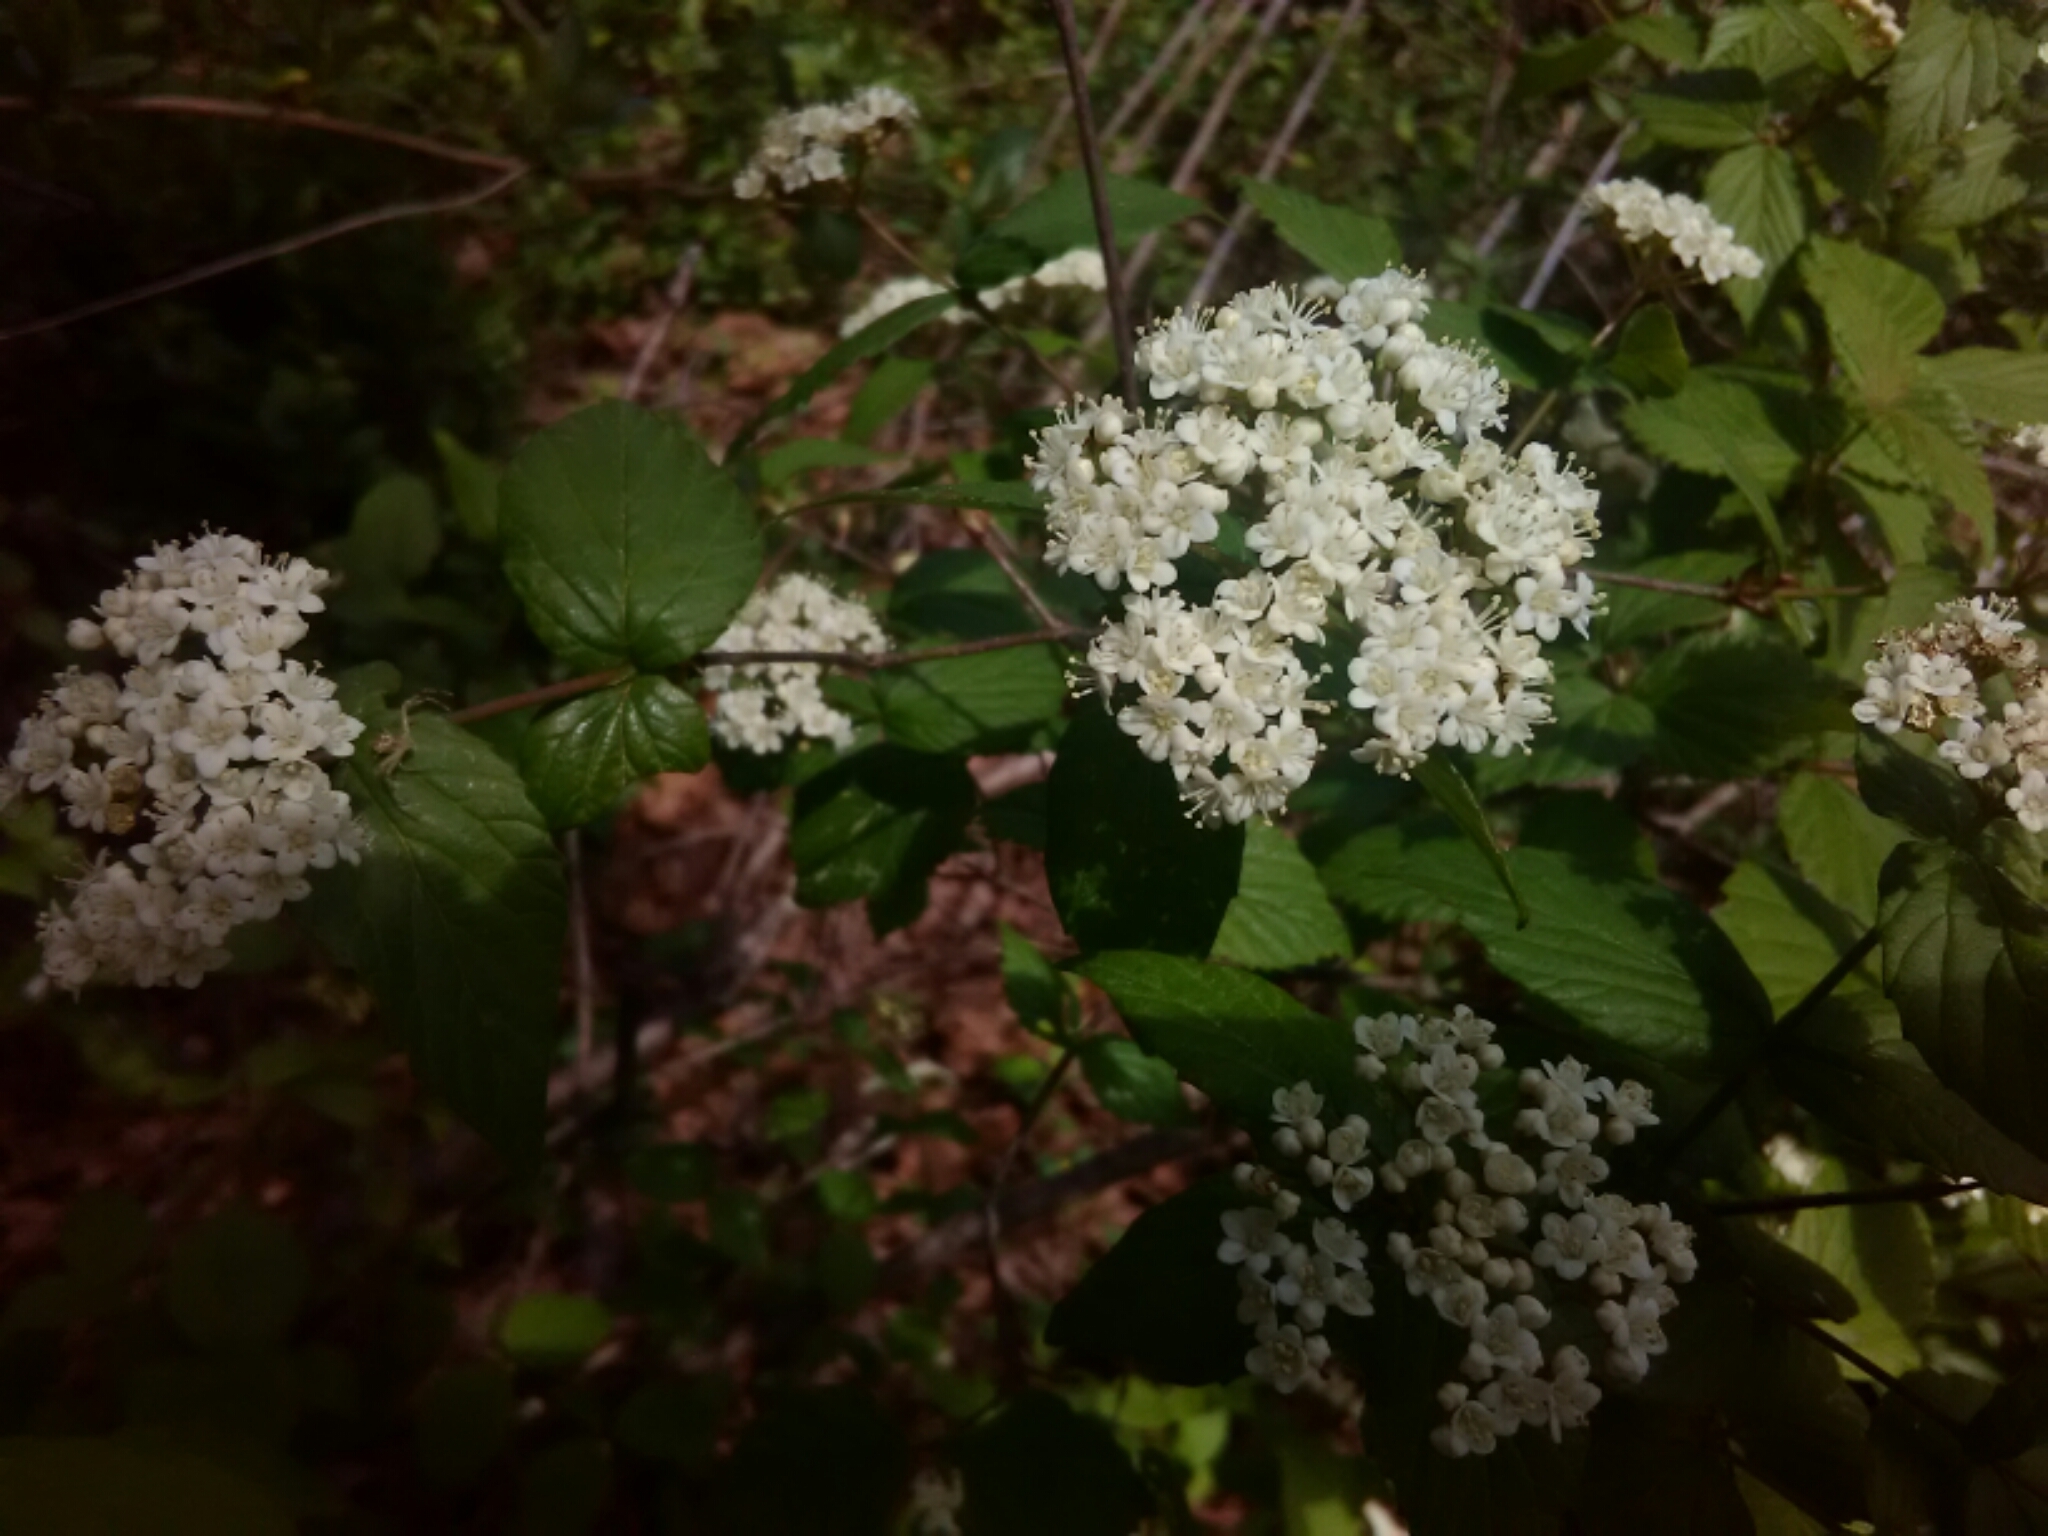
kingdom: Plantae
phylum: Tracheophyta
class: Magnoliopsida
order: Dipsacales
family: Viburnaceae
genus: Viburnum
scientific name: Viburnum rafinesqueanum
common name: Downy arrow-wood
